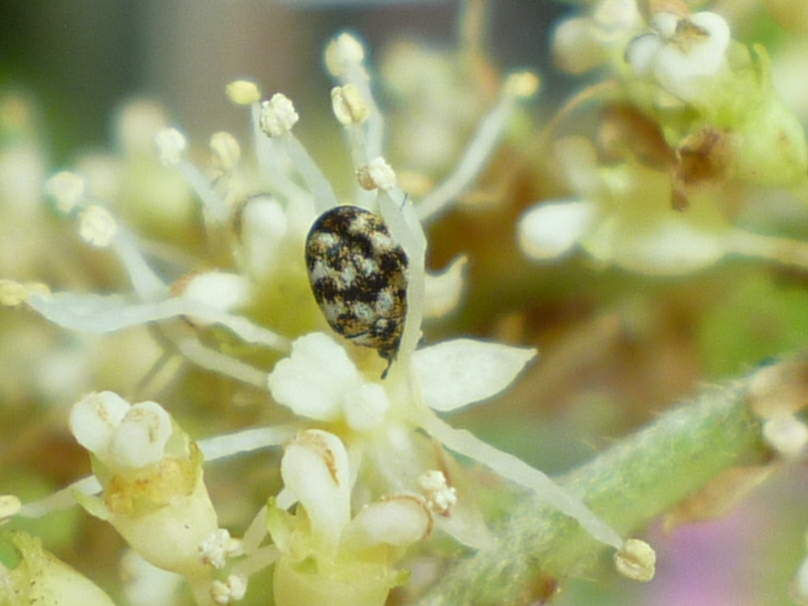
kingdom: Animalia
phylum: Arthropoda
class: Insecta
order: Coleoptera
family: Dermestidae
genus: Anthrenus
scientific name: Anthrenus verbasci
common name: Varied carpet beetle
